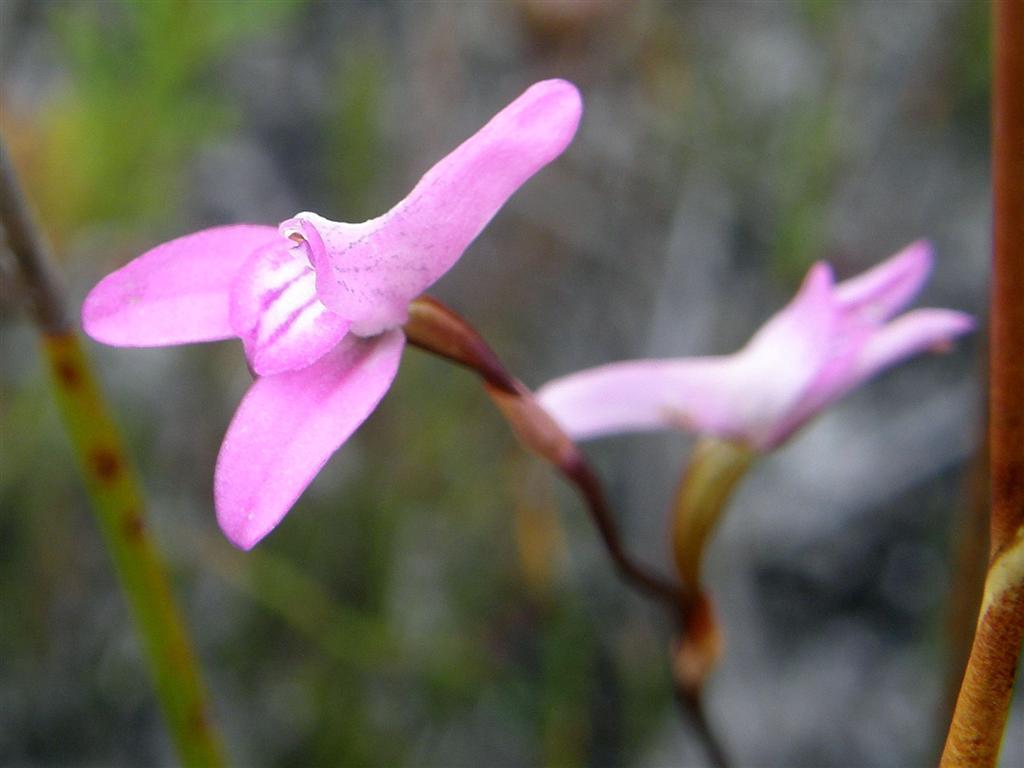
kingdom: Plantae
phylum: Tracheophyta
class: Liliopsida
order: Asparagales
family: Orchidaceae
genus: Disa
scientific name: Disa inflexa
